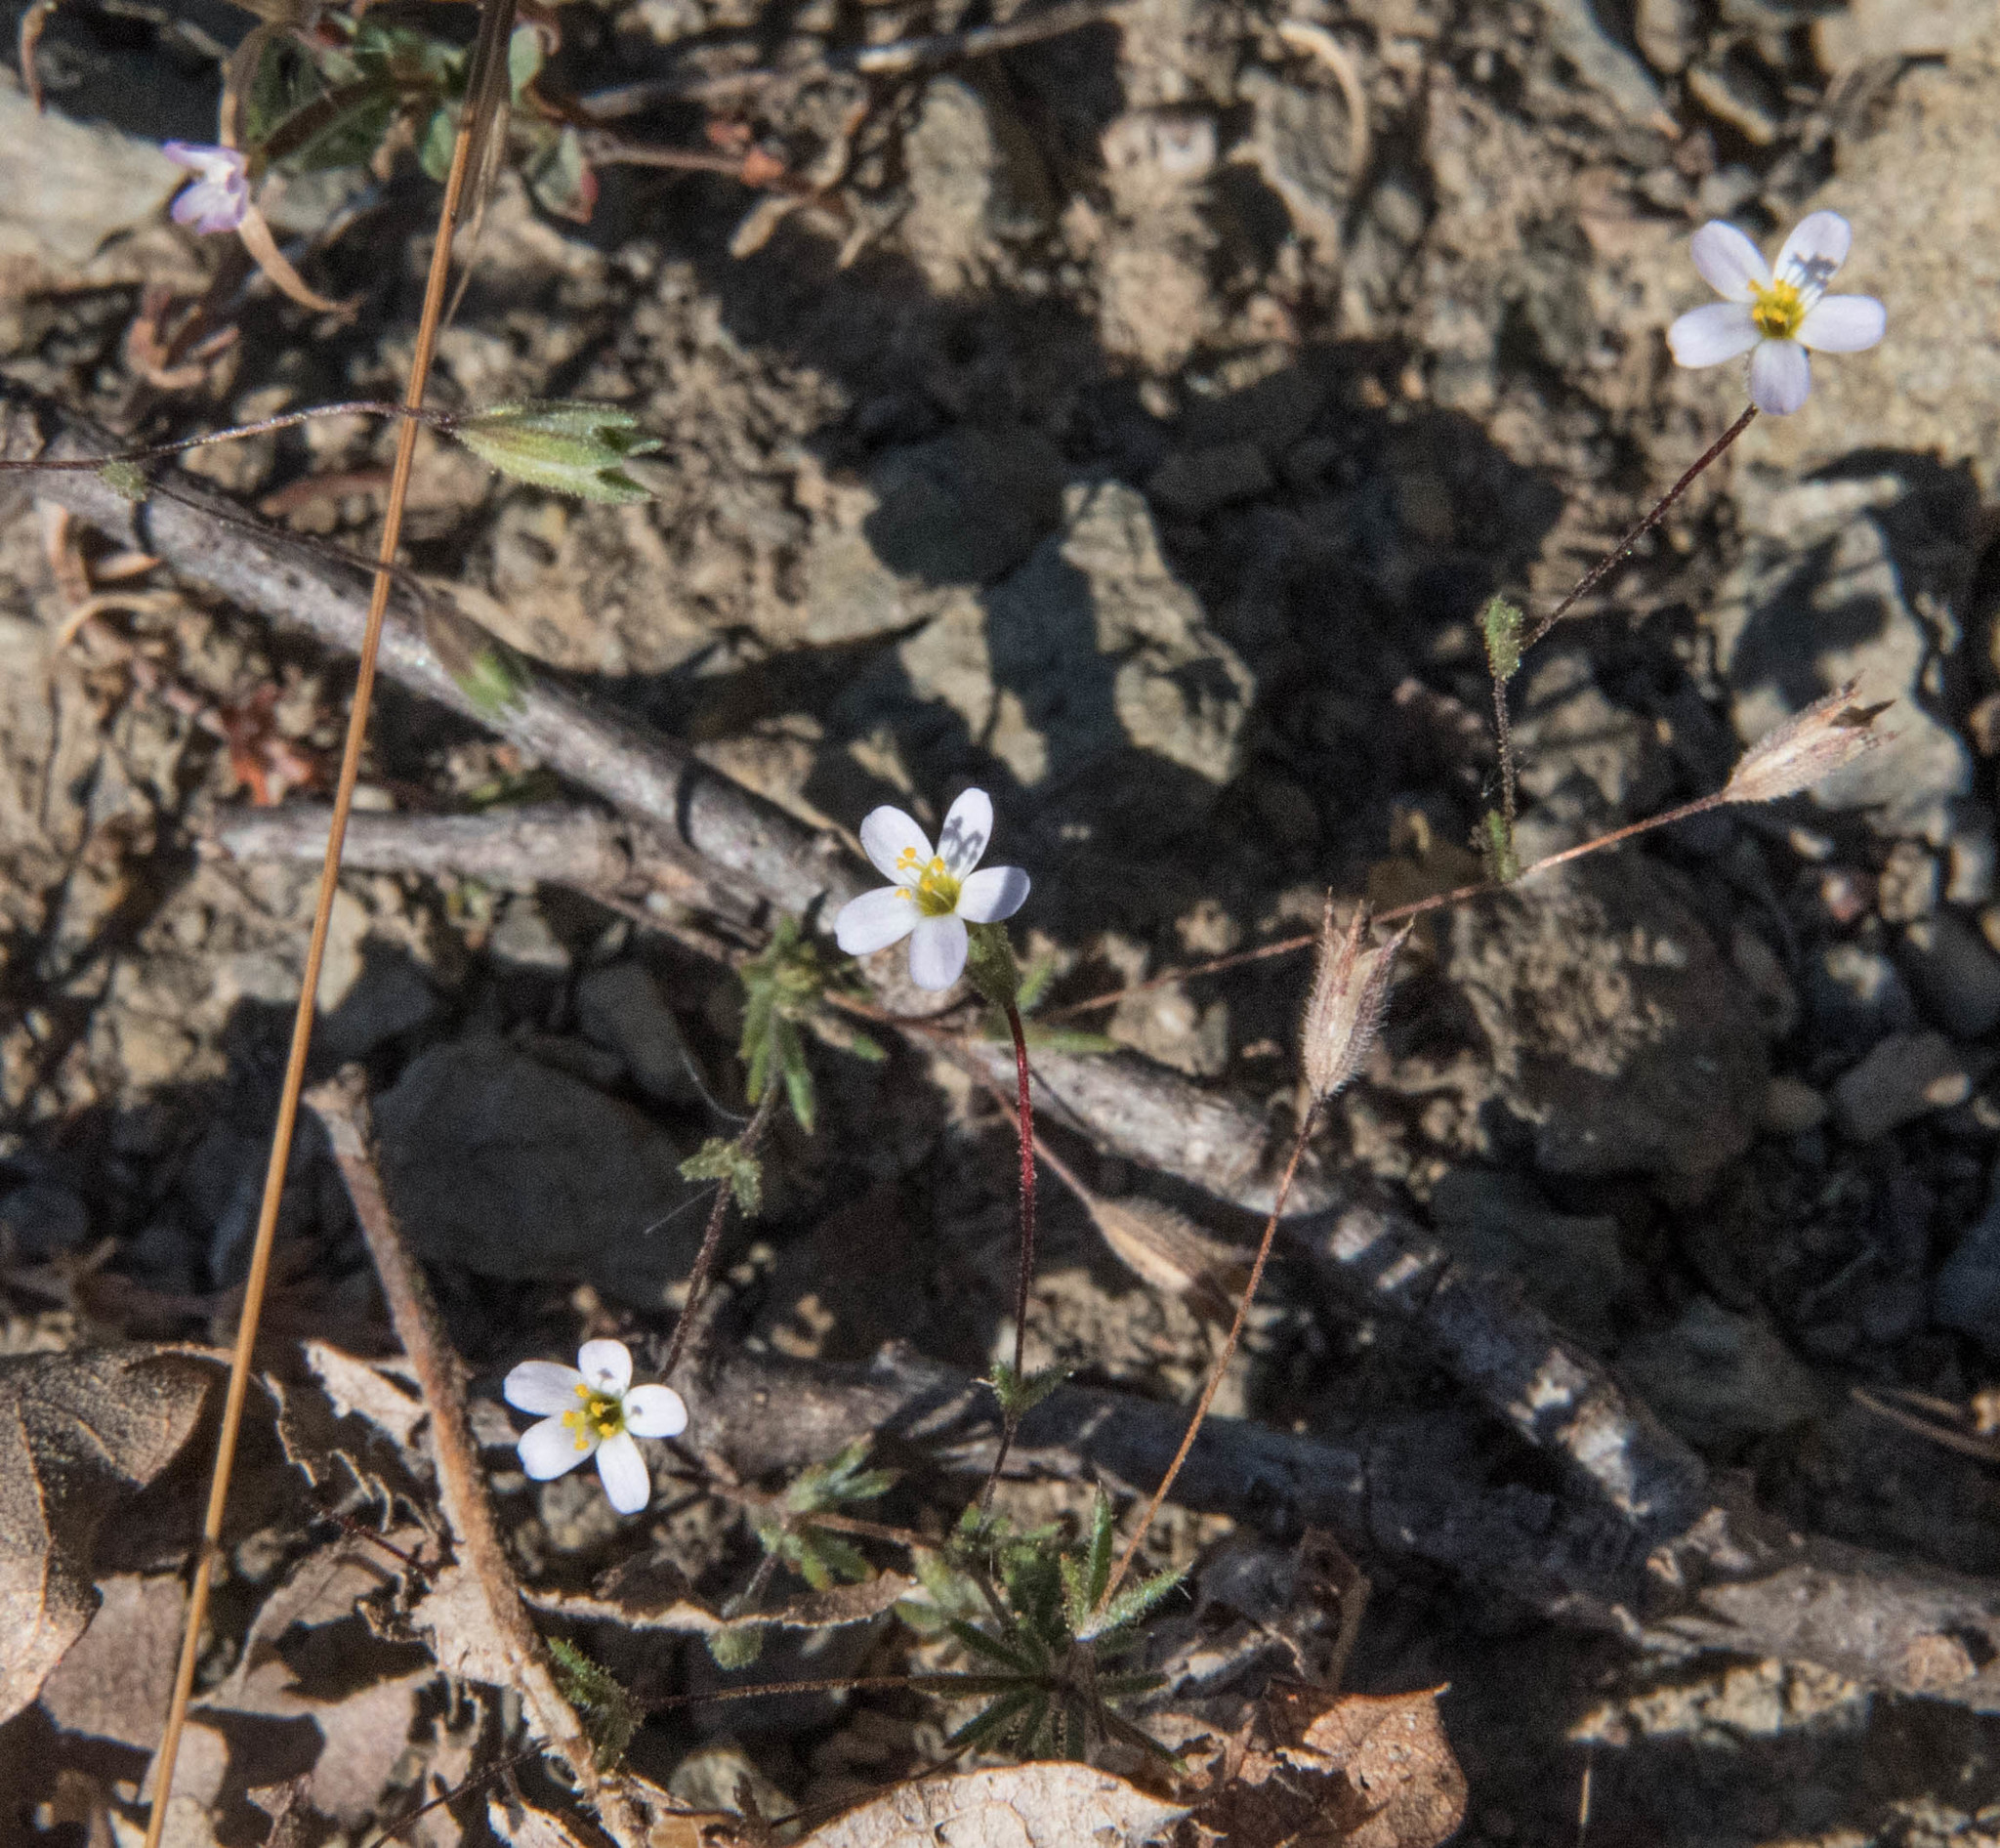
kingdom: Plantae
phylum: Tracheophyta
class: Magnoliopsida
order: Ericales
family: Polemoniaceae
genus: Leptosiphon
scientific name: Leptosiphon bolanderi
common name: Bolander's linanthus
